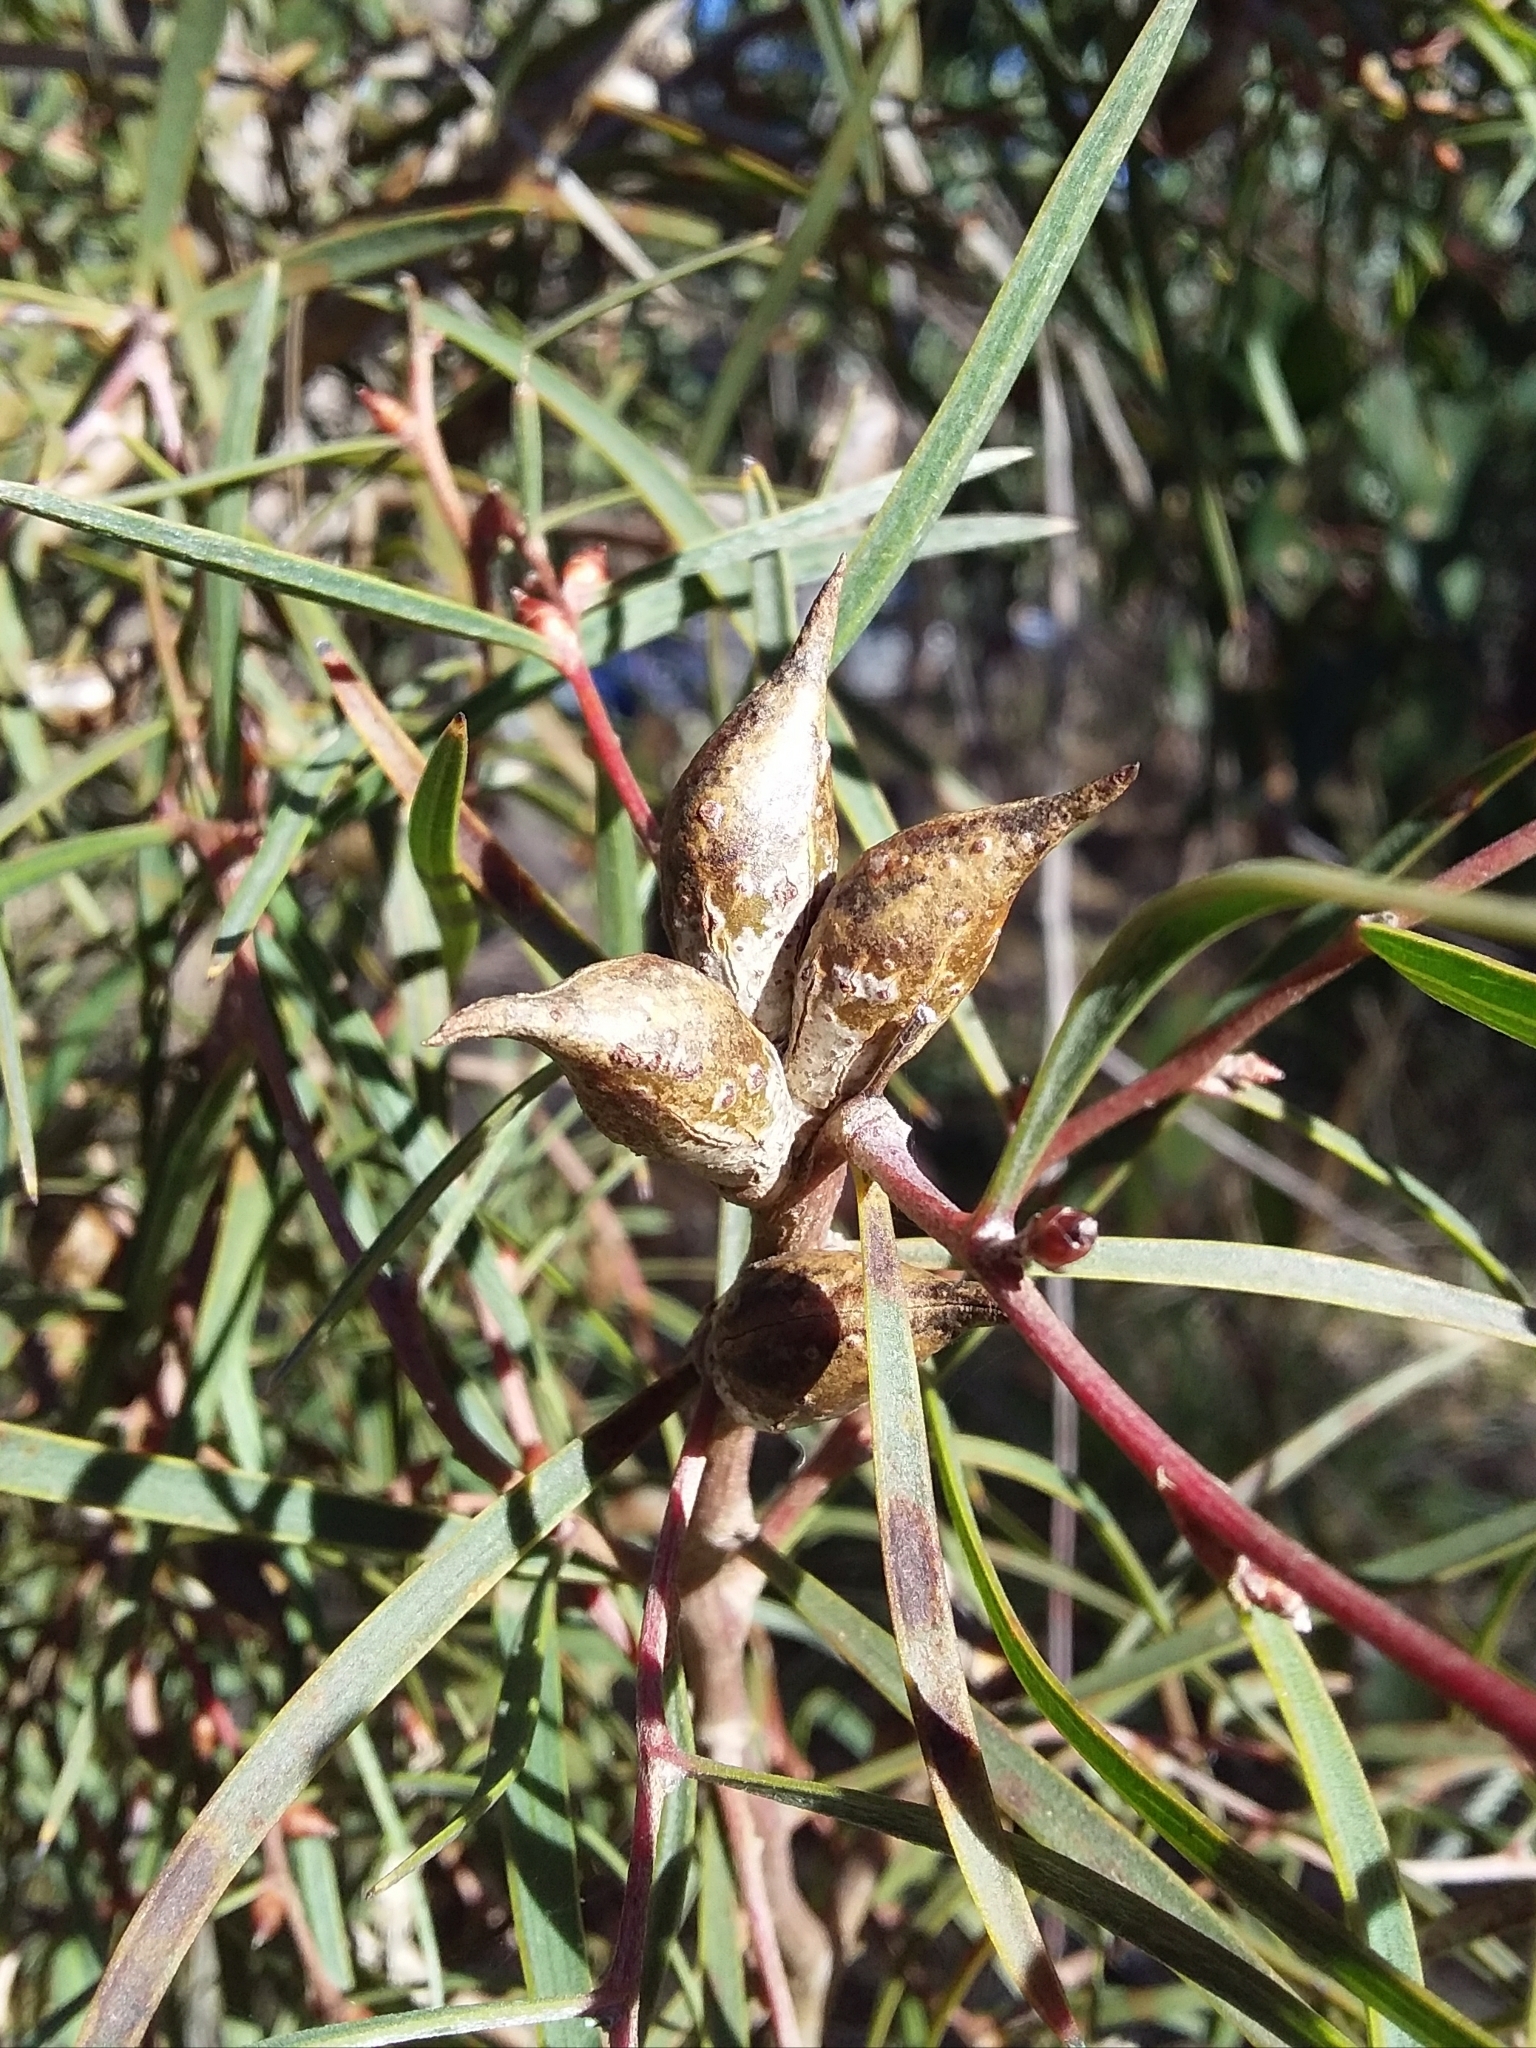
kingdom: Plantae
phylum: Tracheophyta
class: Magnoliopsida
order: Proteales
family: Proteaceae
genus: Hakea
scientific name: Hakea carinata
